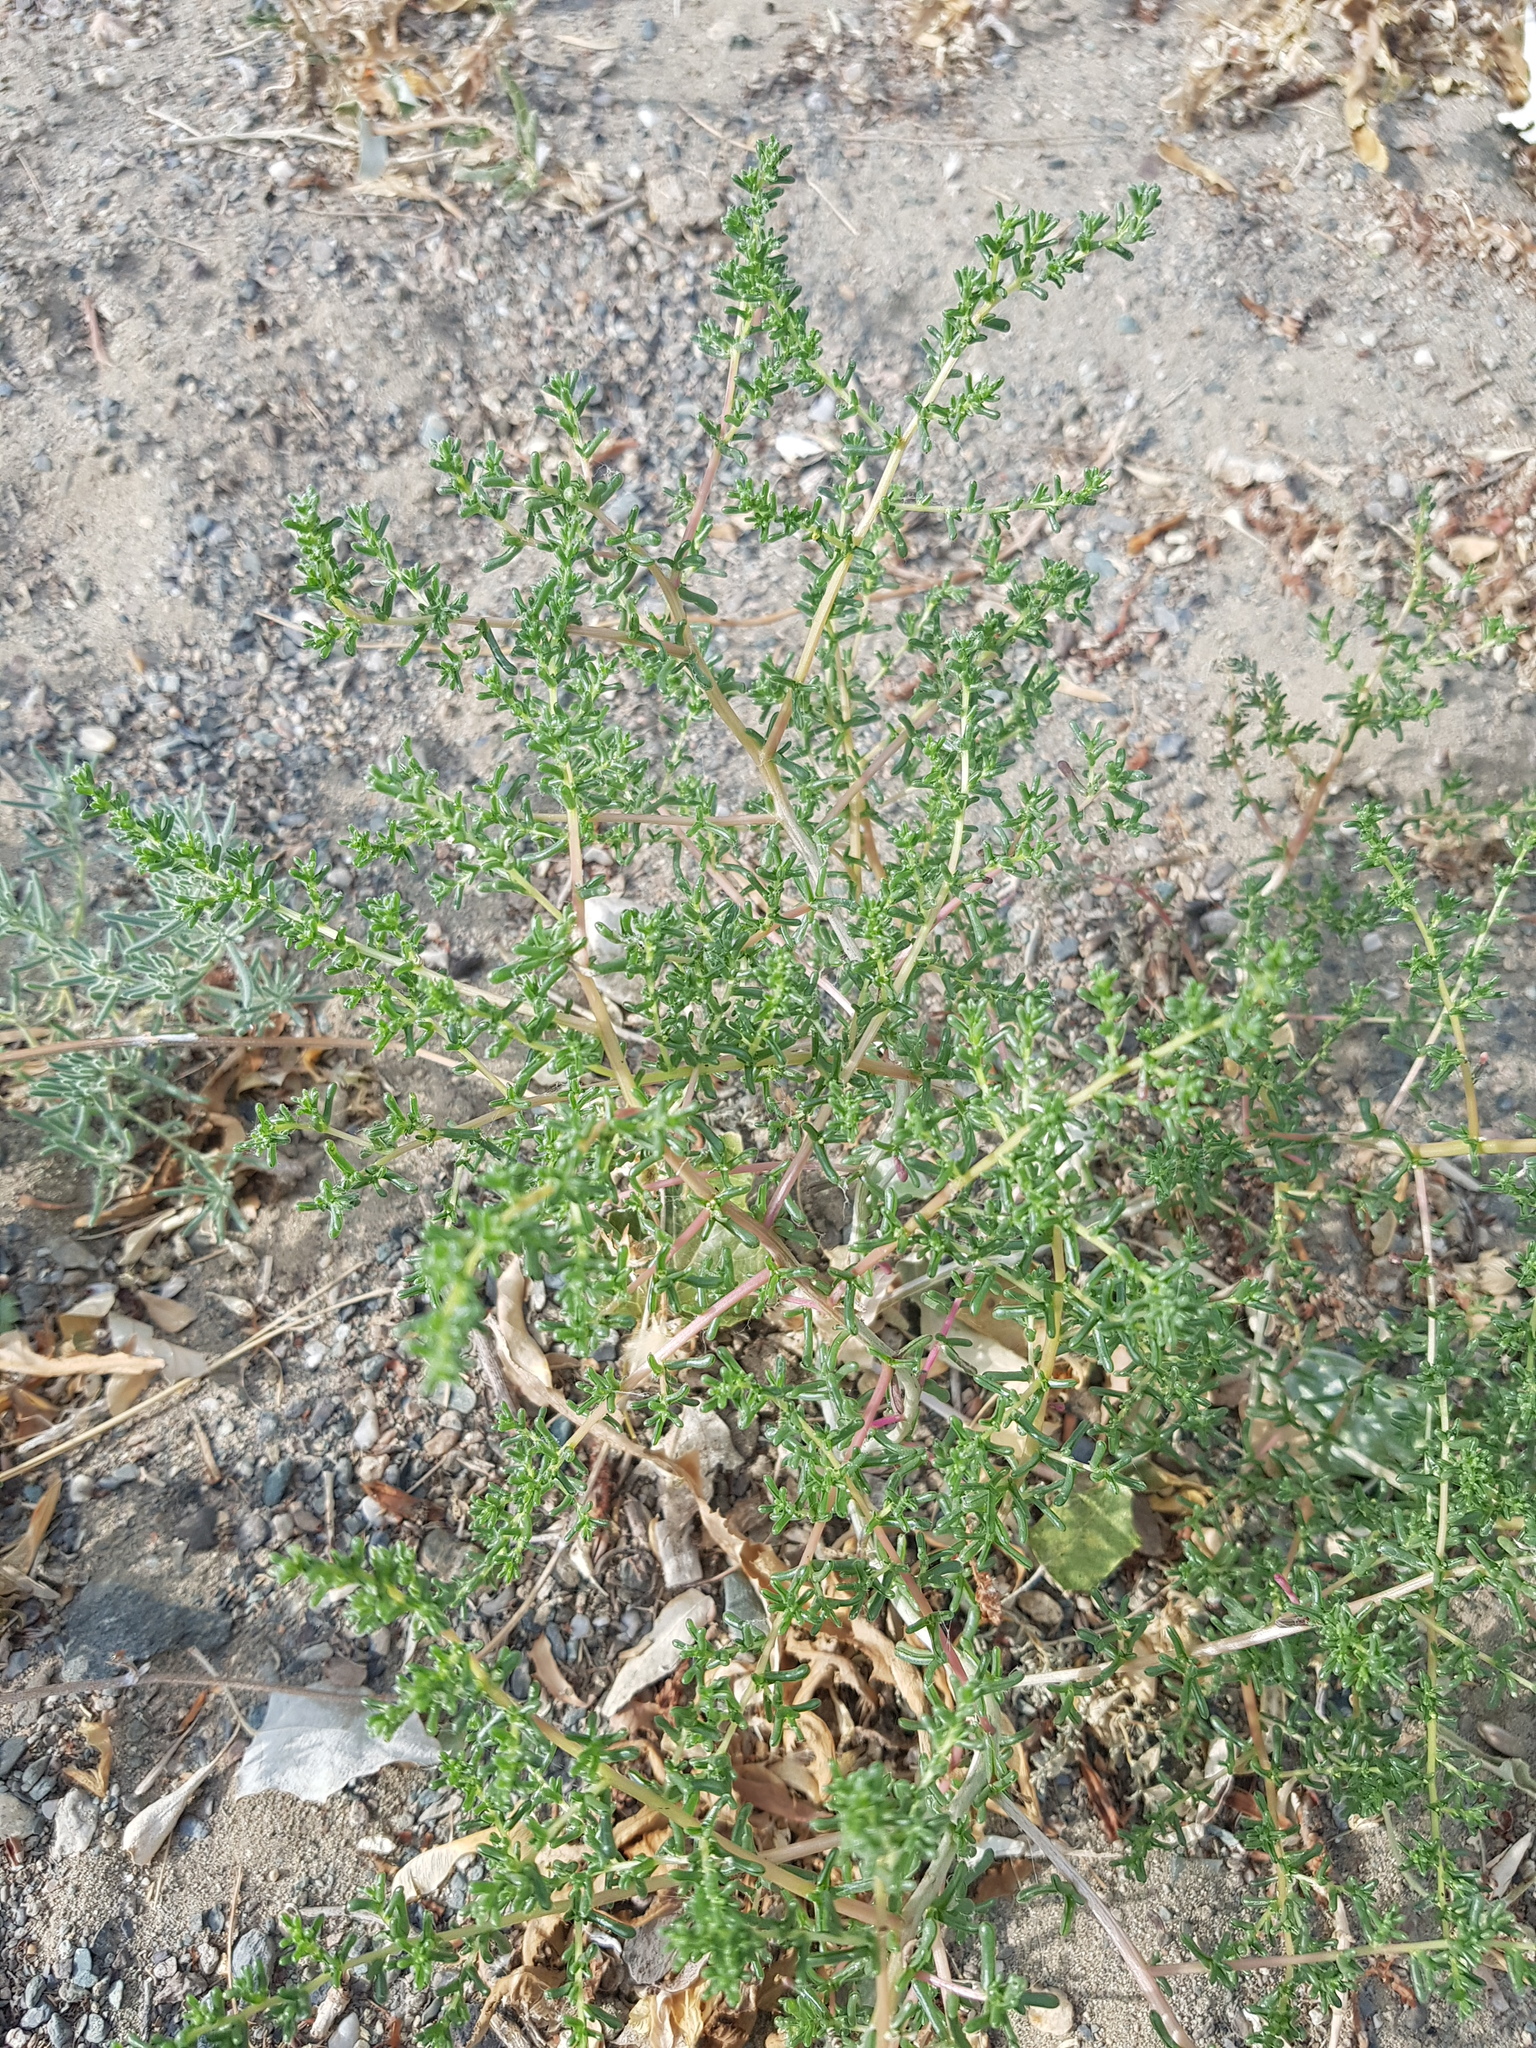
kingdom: Plantae
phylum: Tracheophyta
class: Magnoliopsida
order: Caryophyllales
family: Amaranthaceae
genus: Halogeton
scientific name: Halogeton glomeratus
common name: Saltlover
